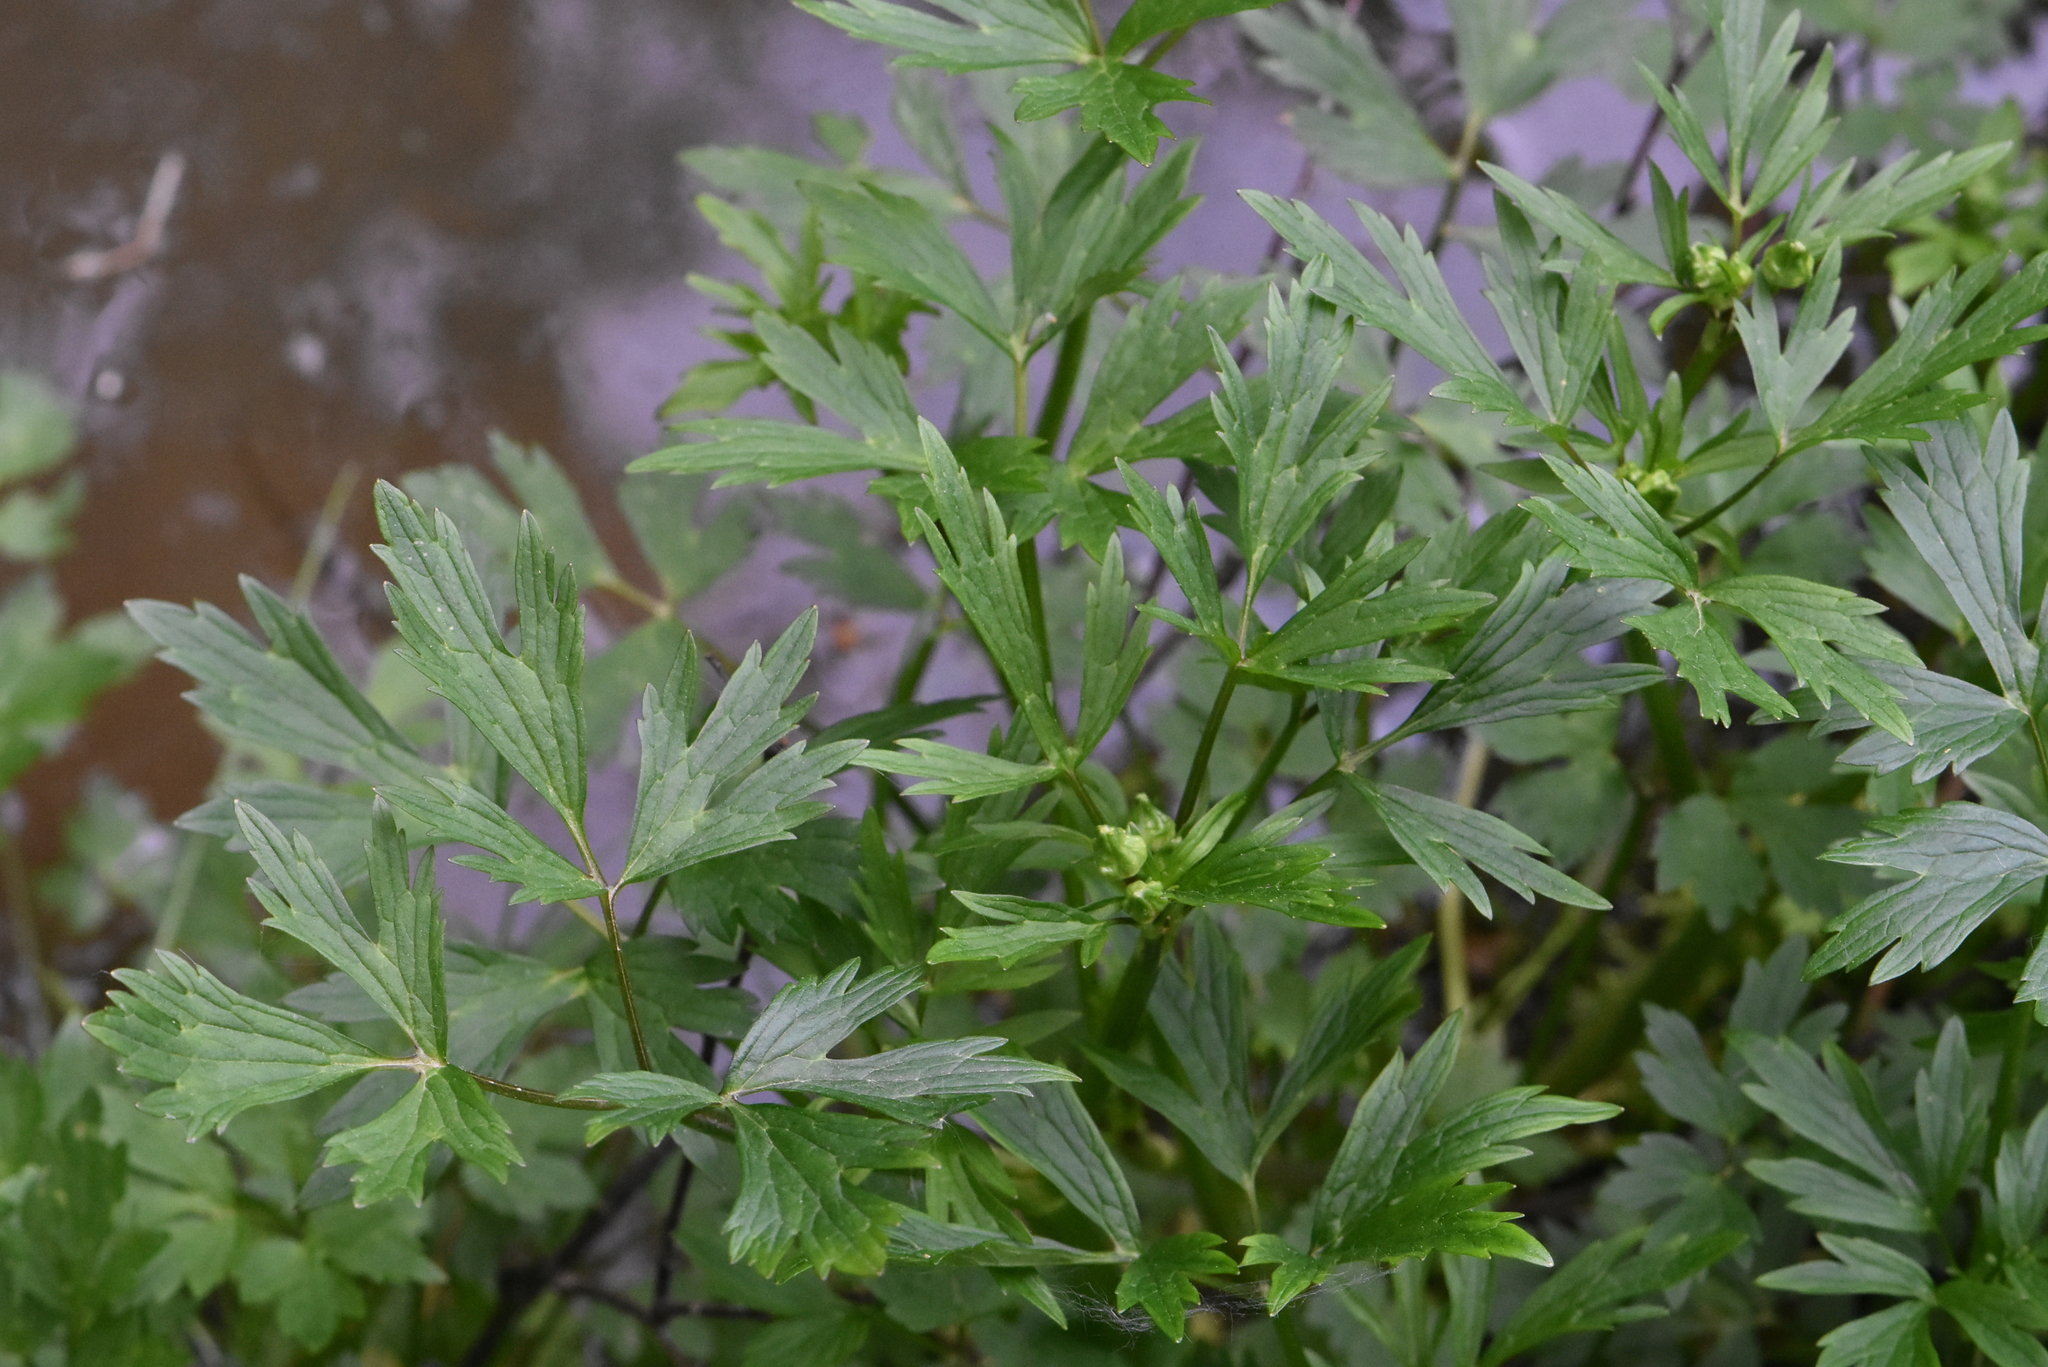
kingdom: Plantae
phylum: Tracheophyta
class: Magnoliopsida
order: Ranunculales
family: Ranunculaceae
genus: Ranunculus
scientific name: Ranunculus repens
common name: Creeping buttercup
